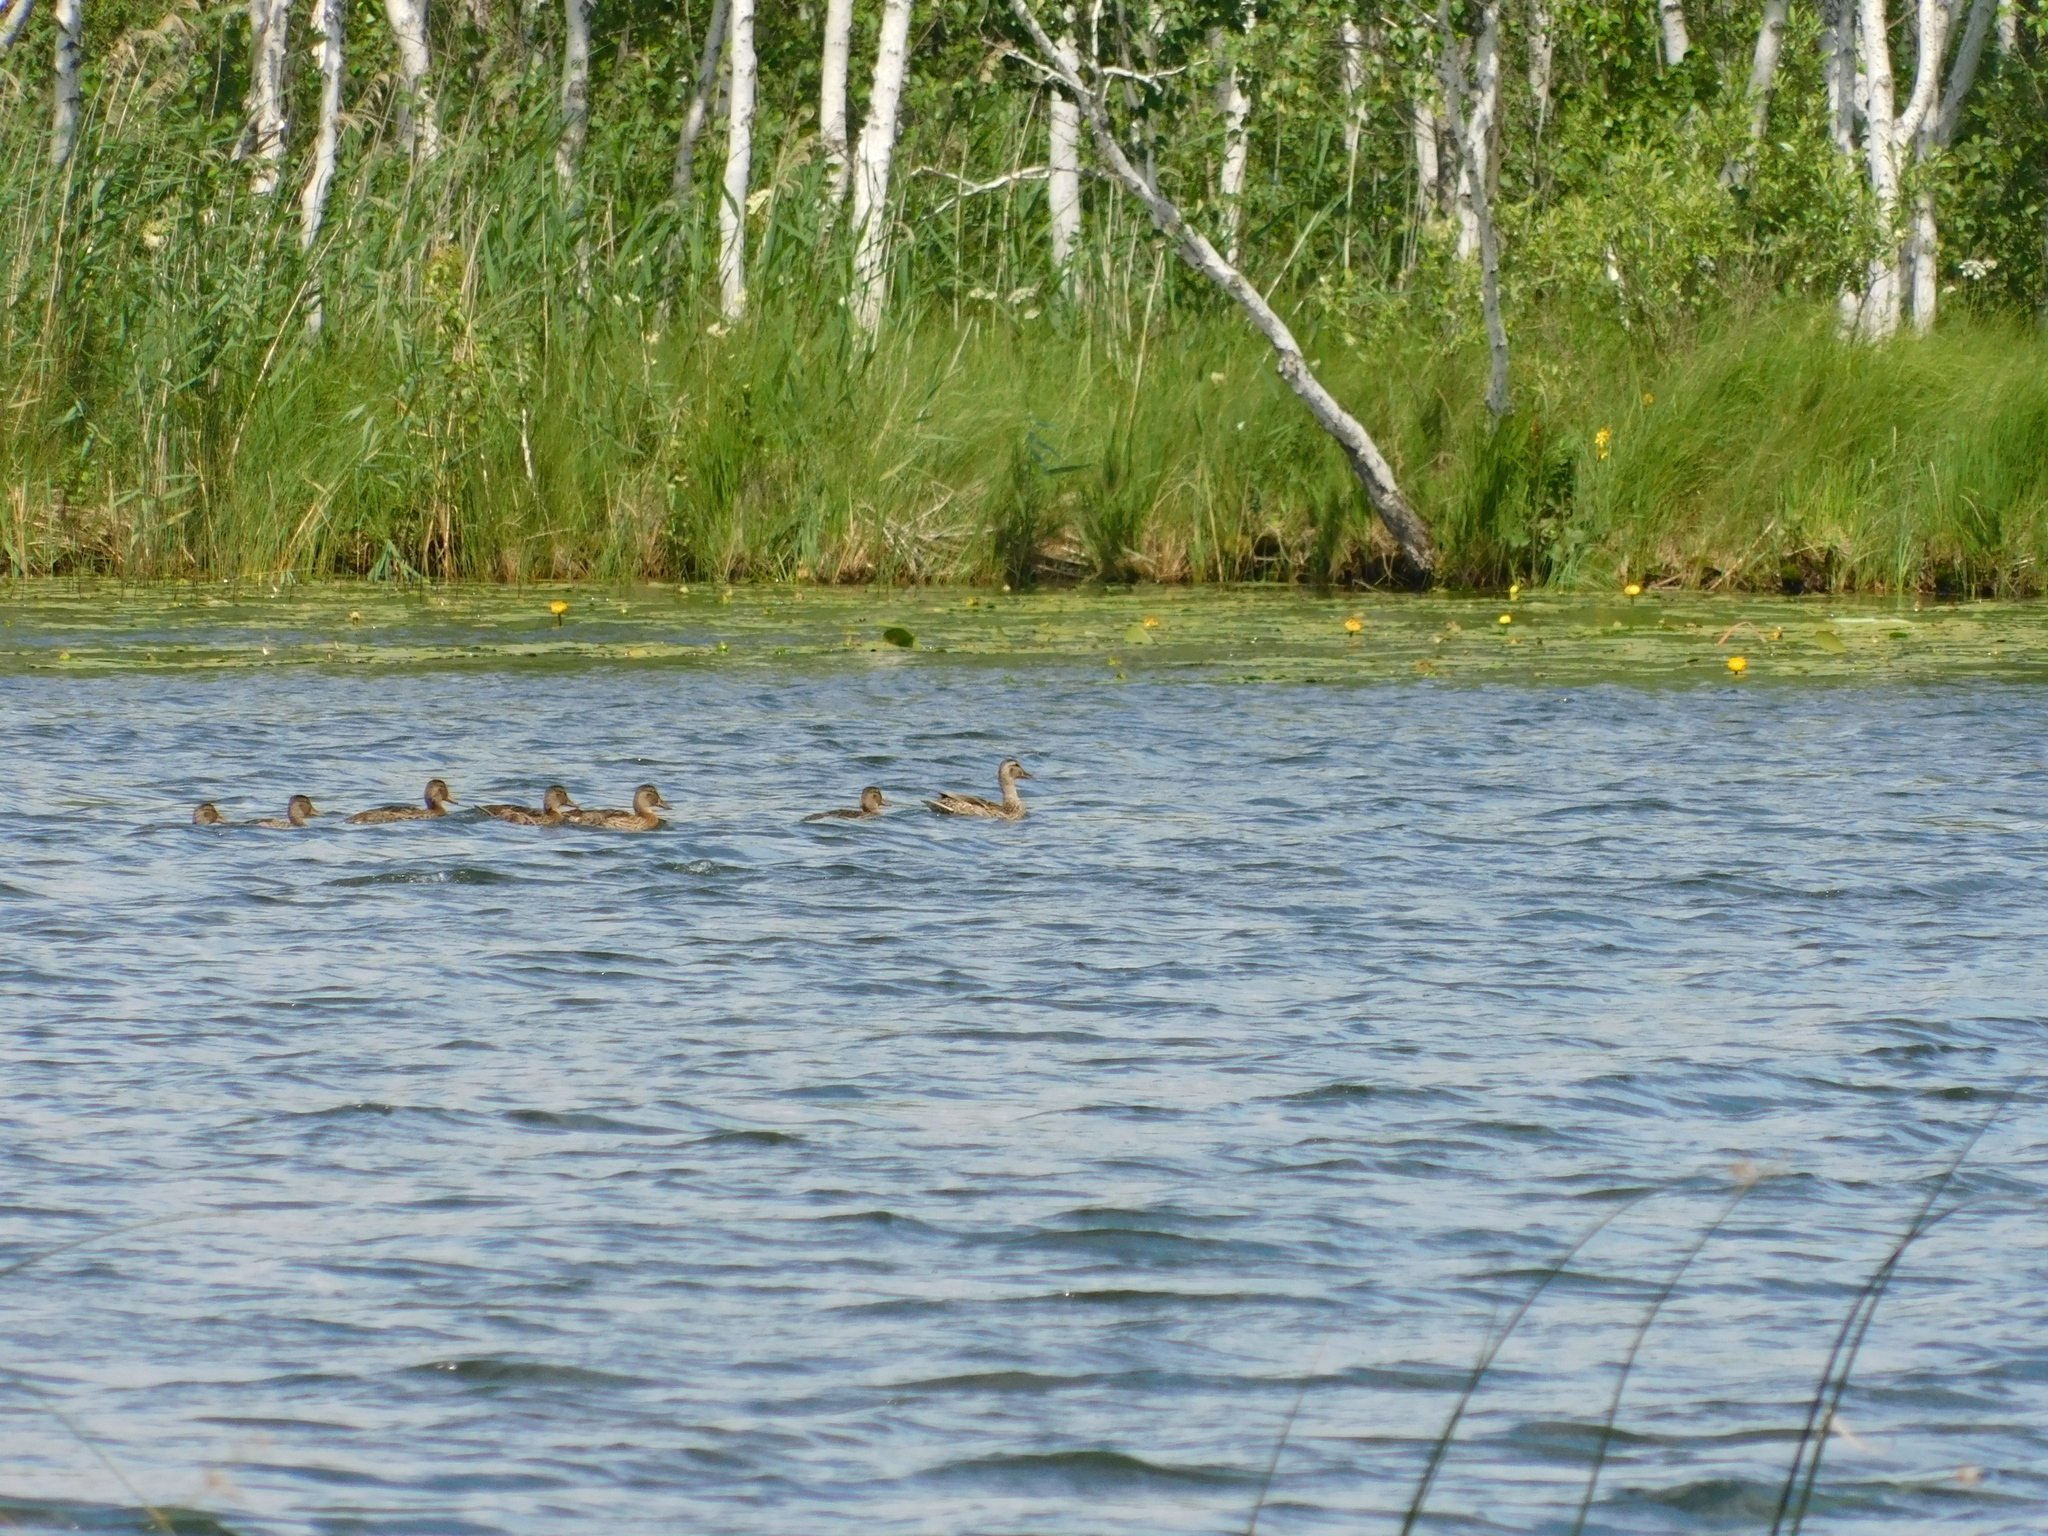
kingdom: Animalia
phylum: Chordata
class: Aves
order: Anseriformes
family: Anatidae
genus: Anas
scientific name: Anas platyrhynchos
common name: Mallard
